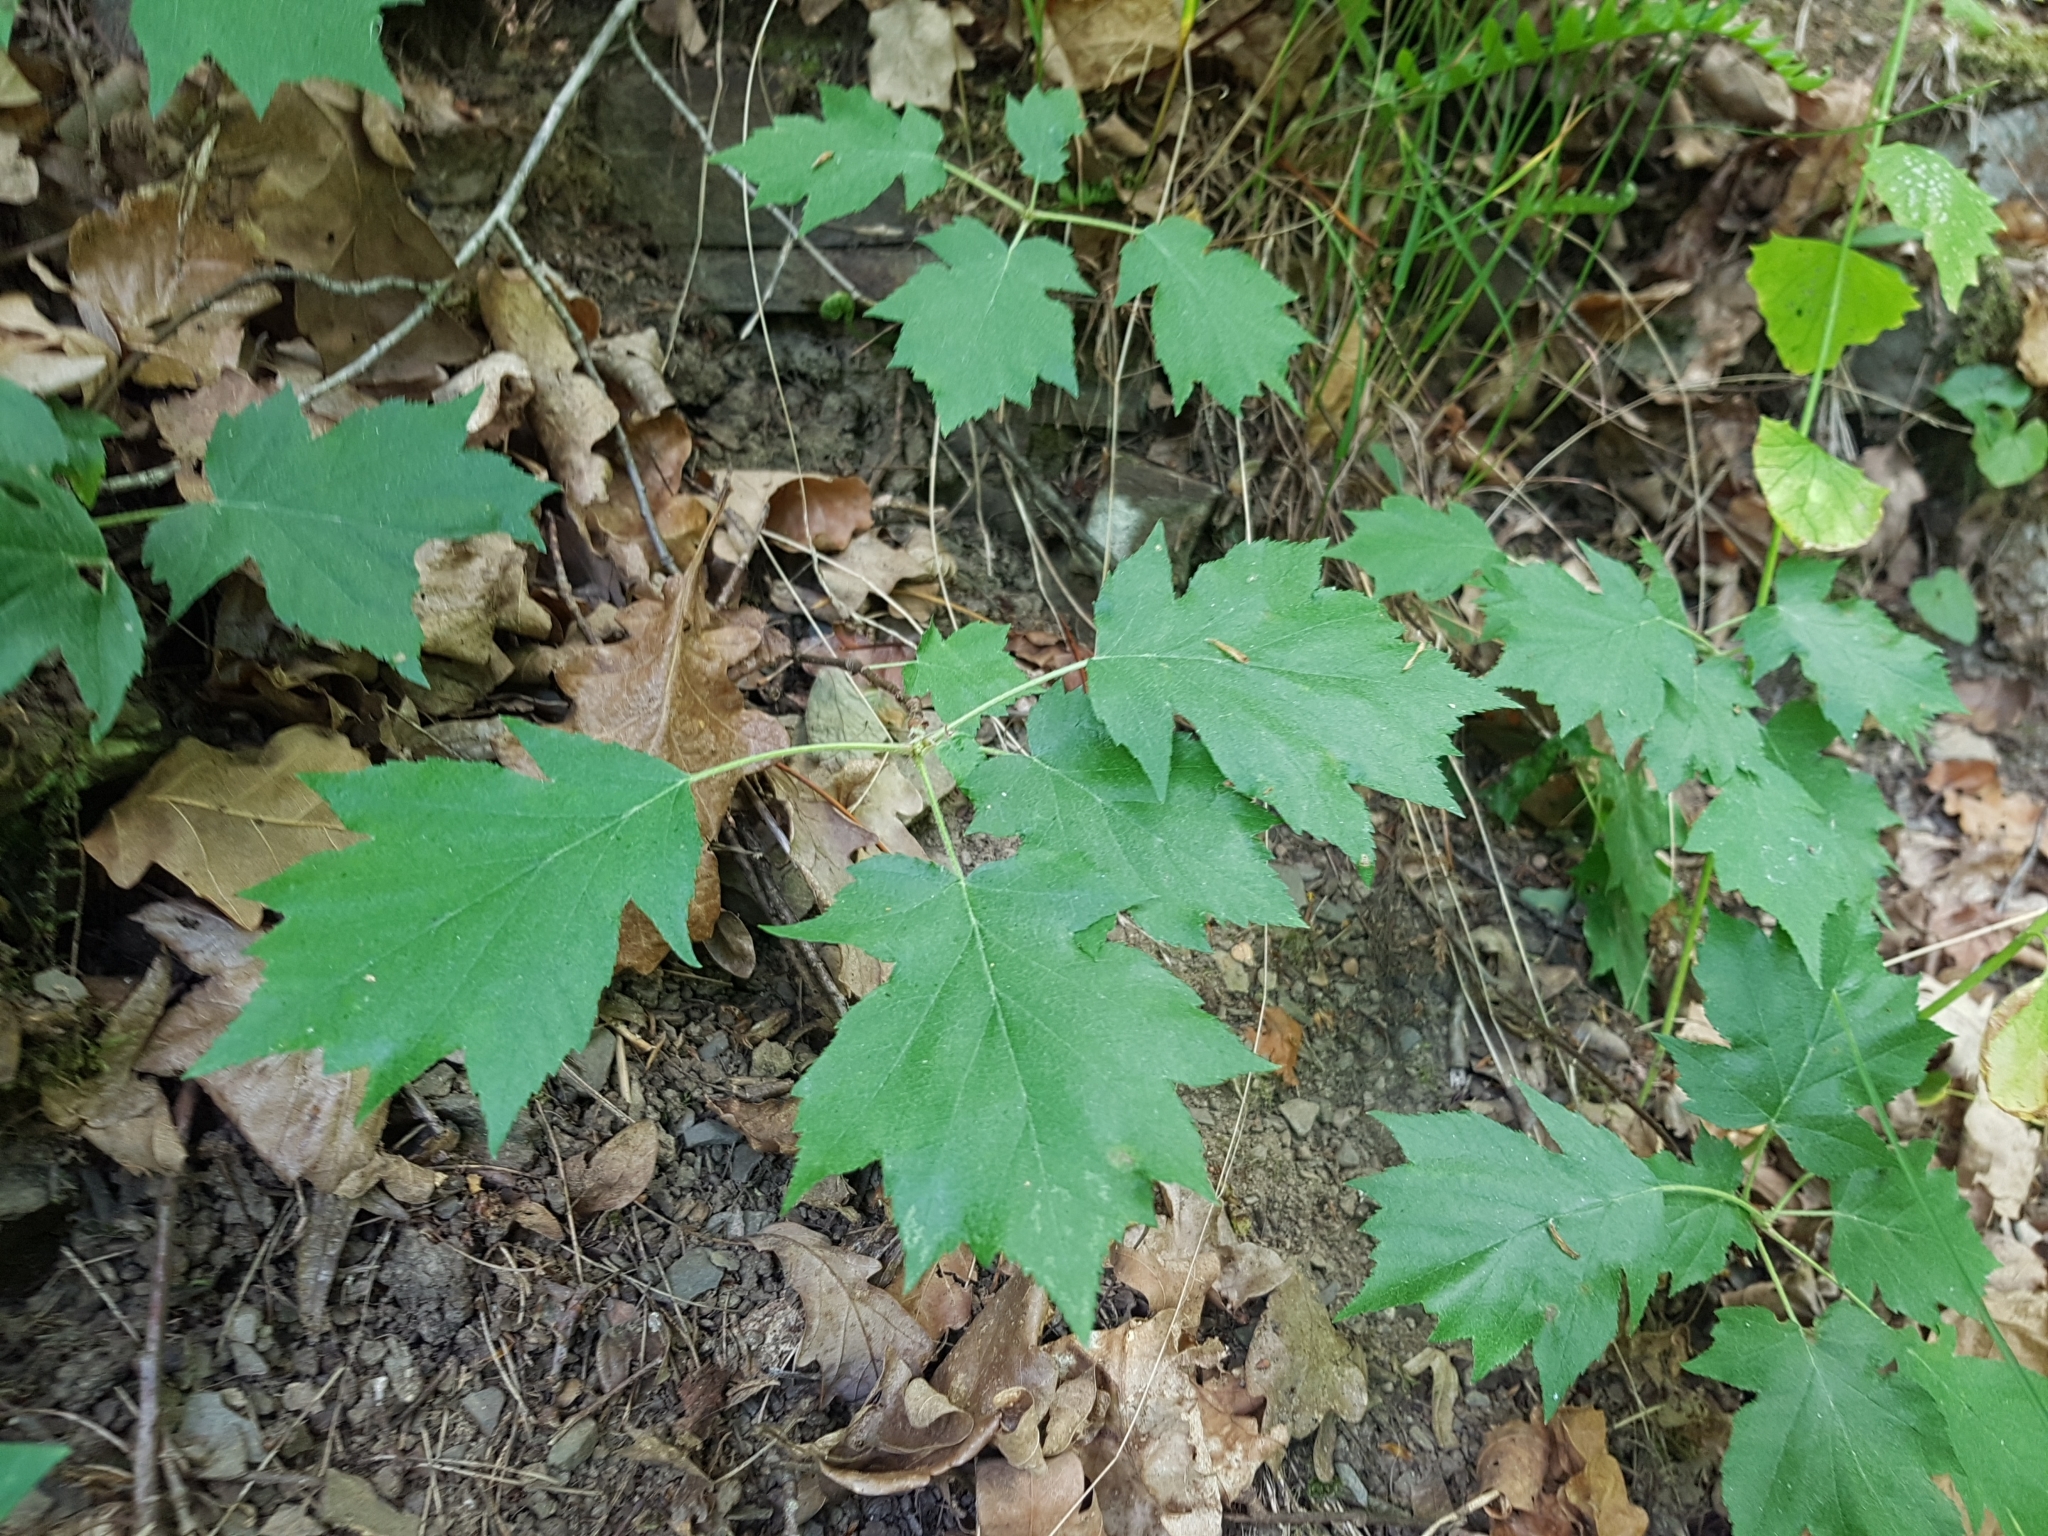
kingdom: Plantae
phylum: Tracheophyta
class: Magnoliopsida
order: Rosales
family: Rosaceae
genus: Torminalis
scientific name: Torminalis glaberrima
